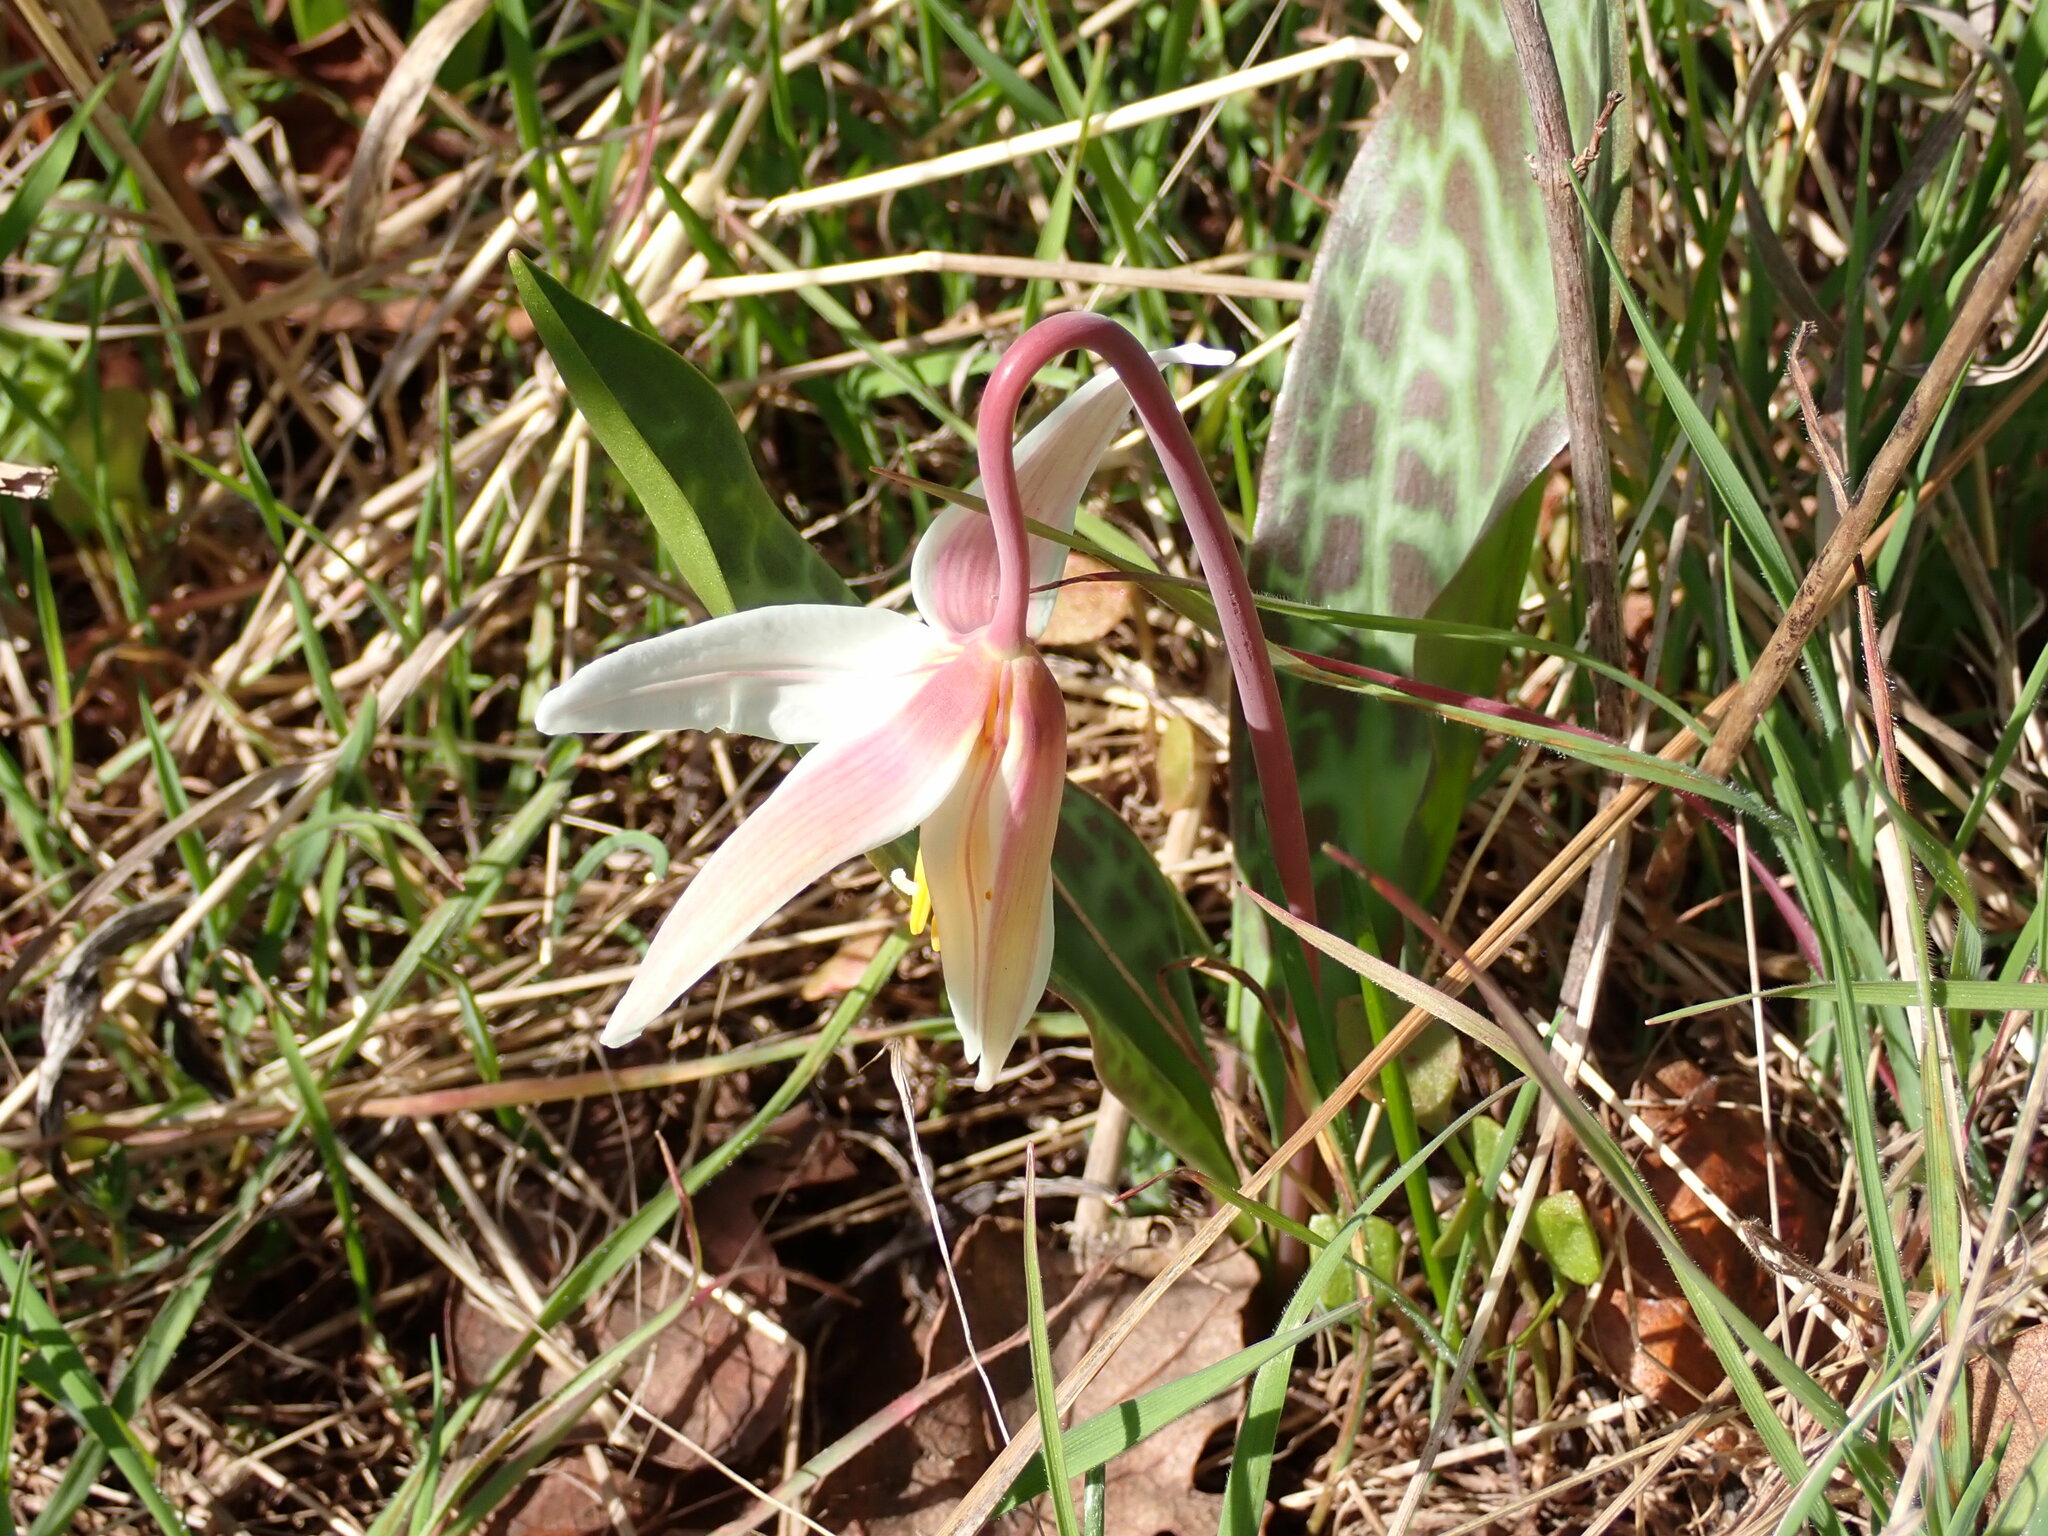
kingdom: Plantae
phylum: Tracheophyta
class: Liliopsida
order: Liliales
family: Liliaceae
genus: Erythronium
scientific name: Erythronium oregonum
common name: Giant adder's-tongue
